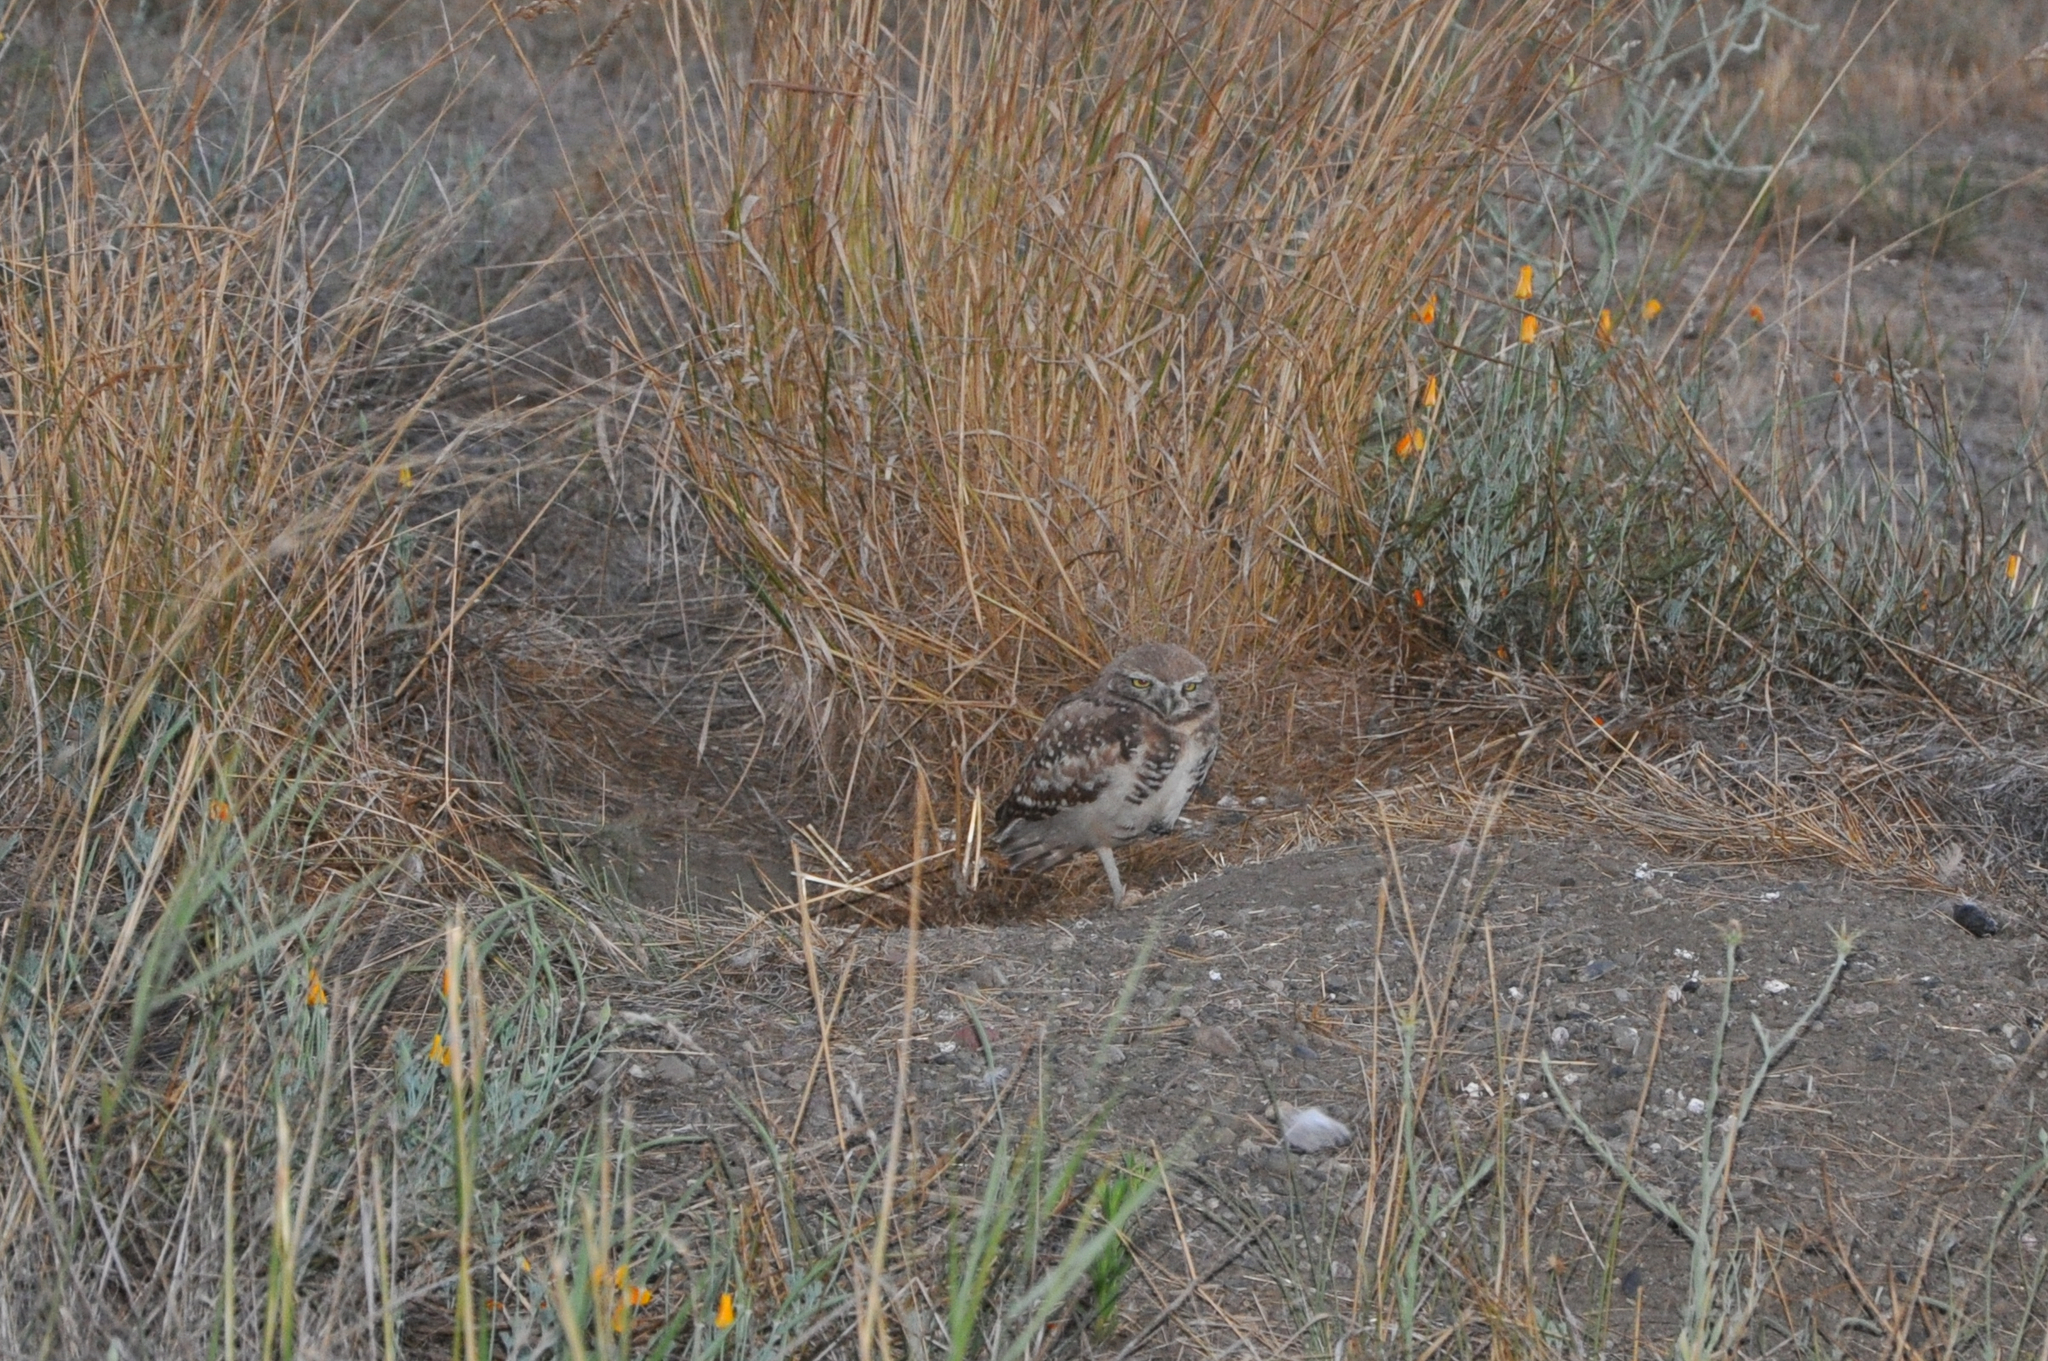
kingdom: Animalia
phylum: Chordata
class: Aves
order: Strigiformes
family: Strigidae
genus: Athene
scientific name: Athene cunicularia
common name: Burrowing owl
